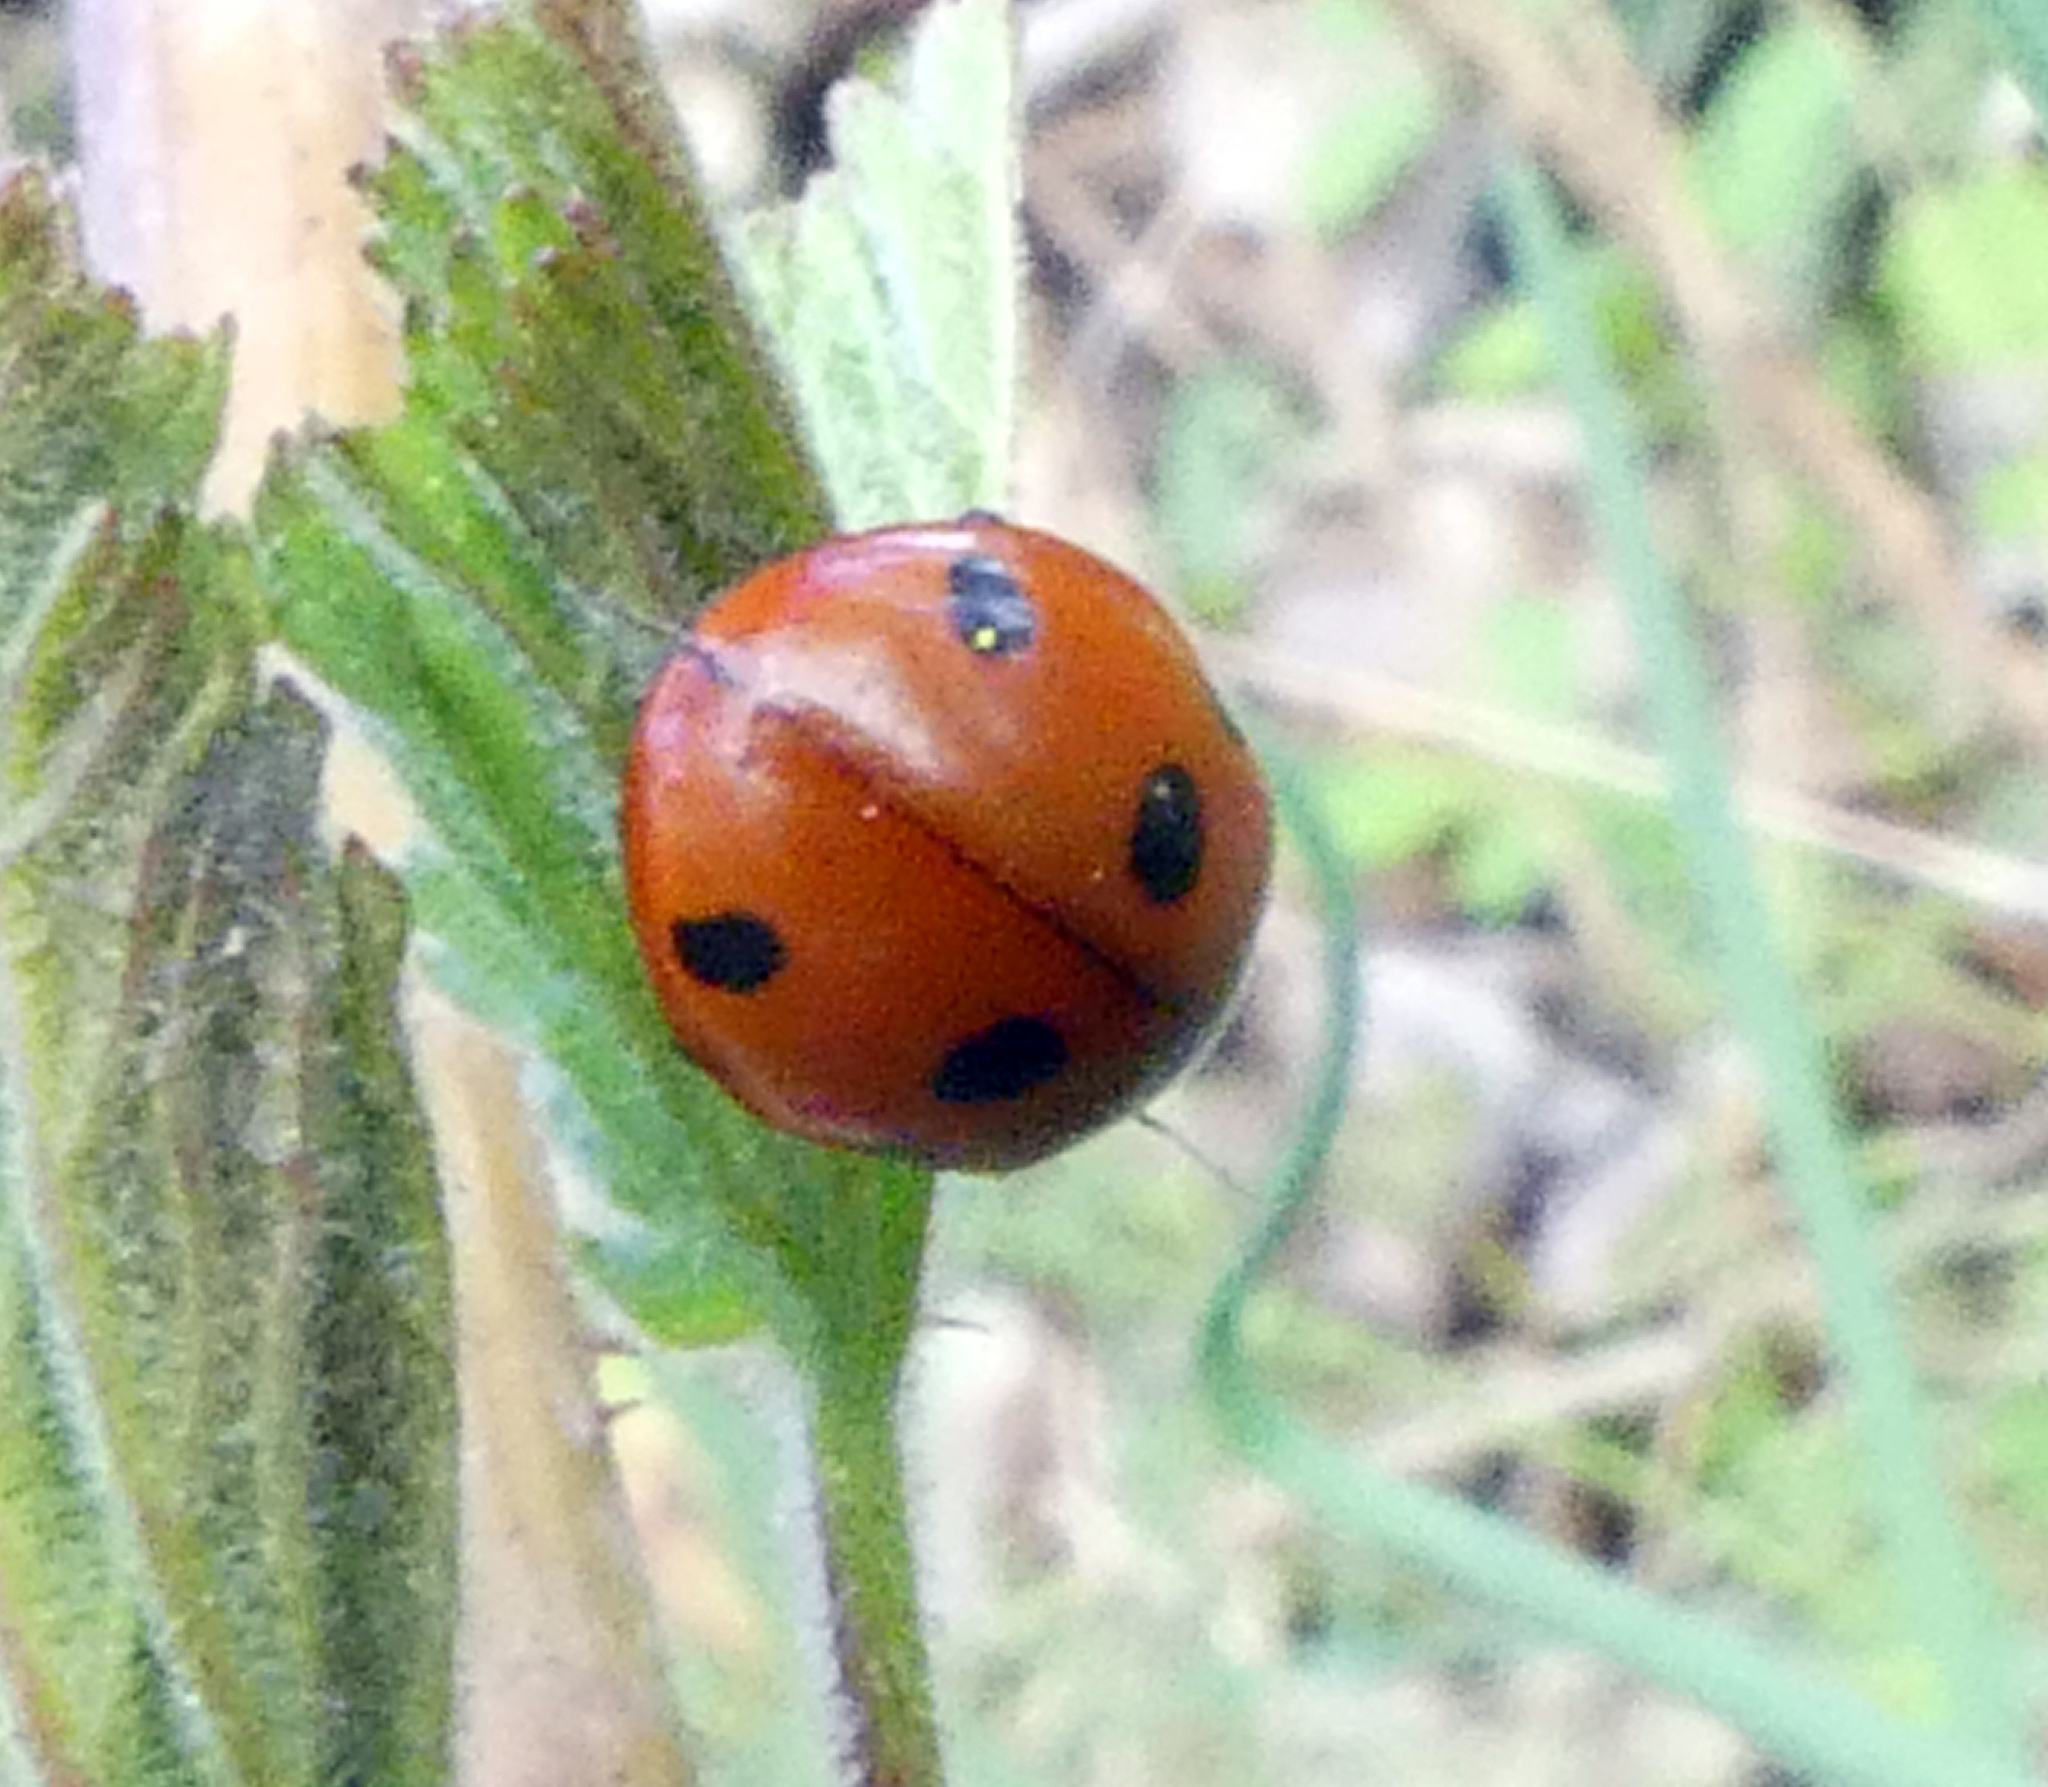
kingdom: Animalia
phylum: Arthropoda
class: Insecta
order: Coleoptera
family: Coccinellidae
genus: Coccinella
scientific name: Coccinella septempunctata
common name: Sevenspotted lady beetle
